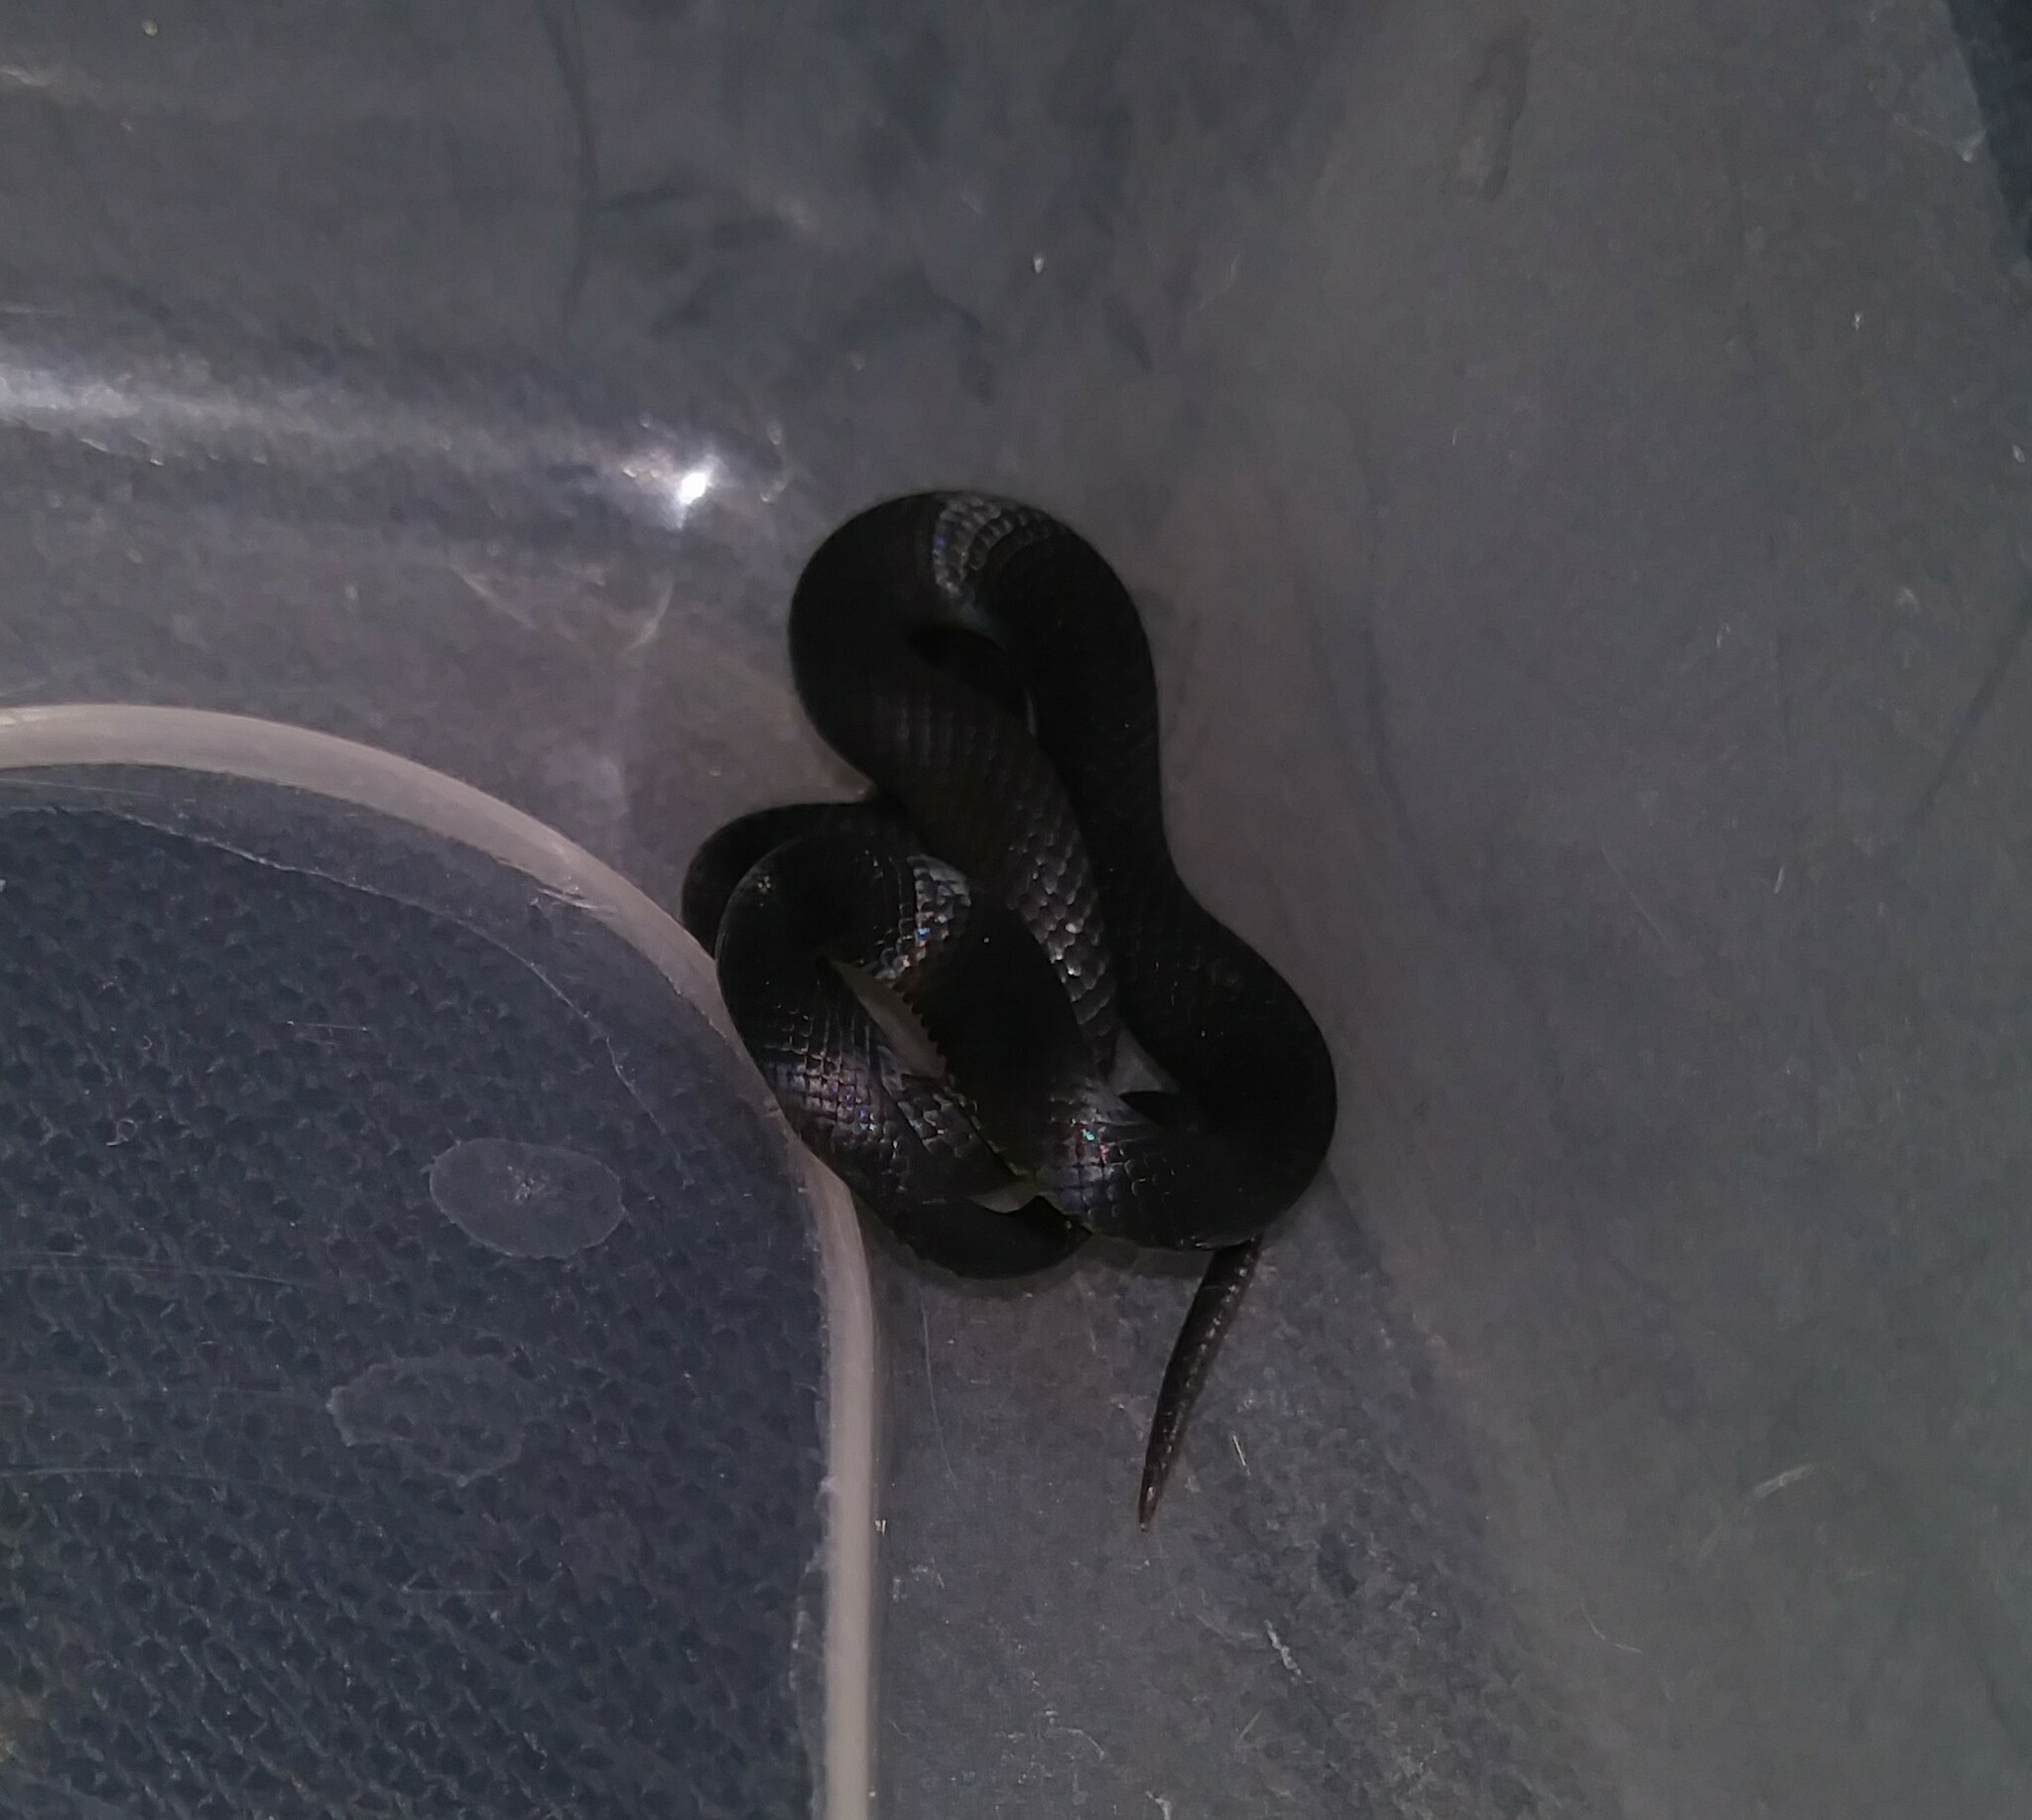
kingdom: Animalia
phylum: Chordata
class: Squamata
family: Colubridae
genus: Diadophis
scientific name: Diadophis punctatus
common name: Ringneck snake
